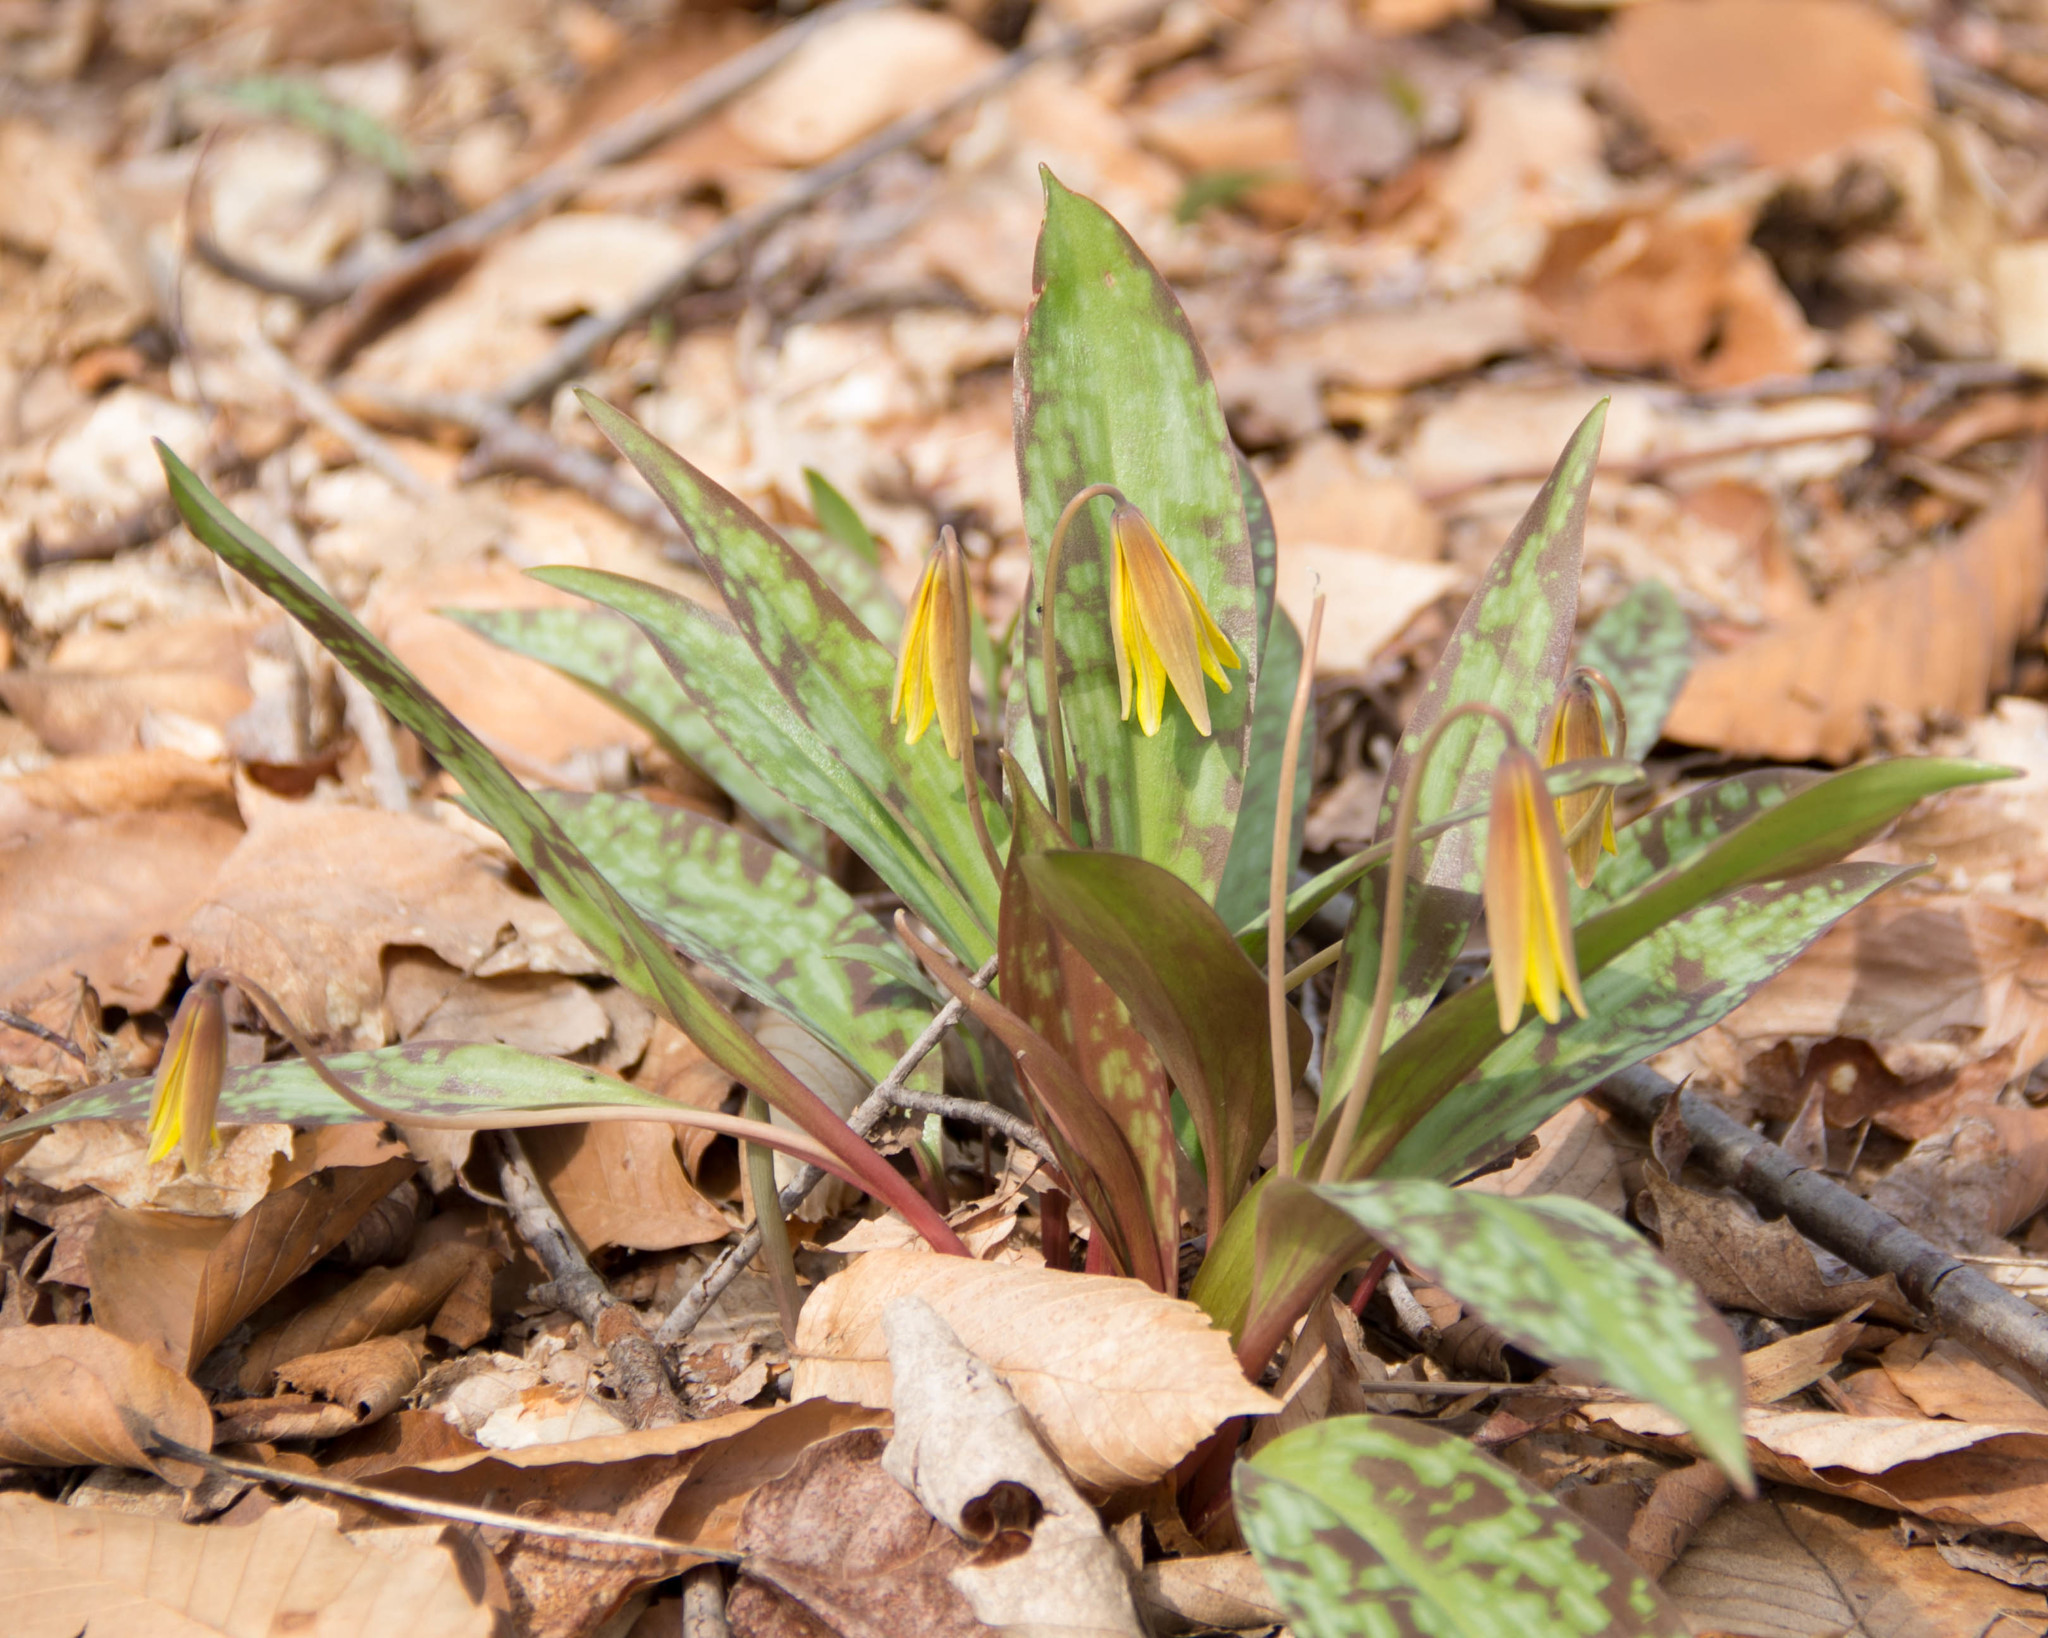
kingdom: Plantae
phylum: Tracheophyta
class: Liliopsida
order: Liliales
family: Liliaceae
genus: Erythronium
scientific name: Erythronium americanum
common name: Yellow adder's-tongue
